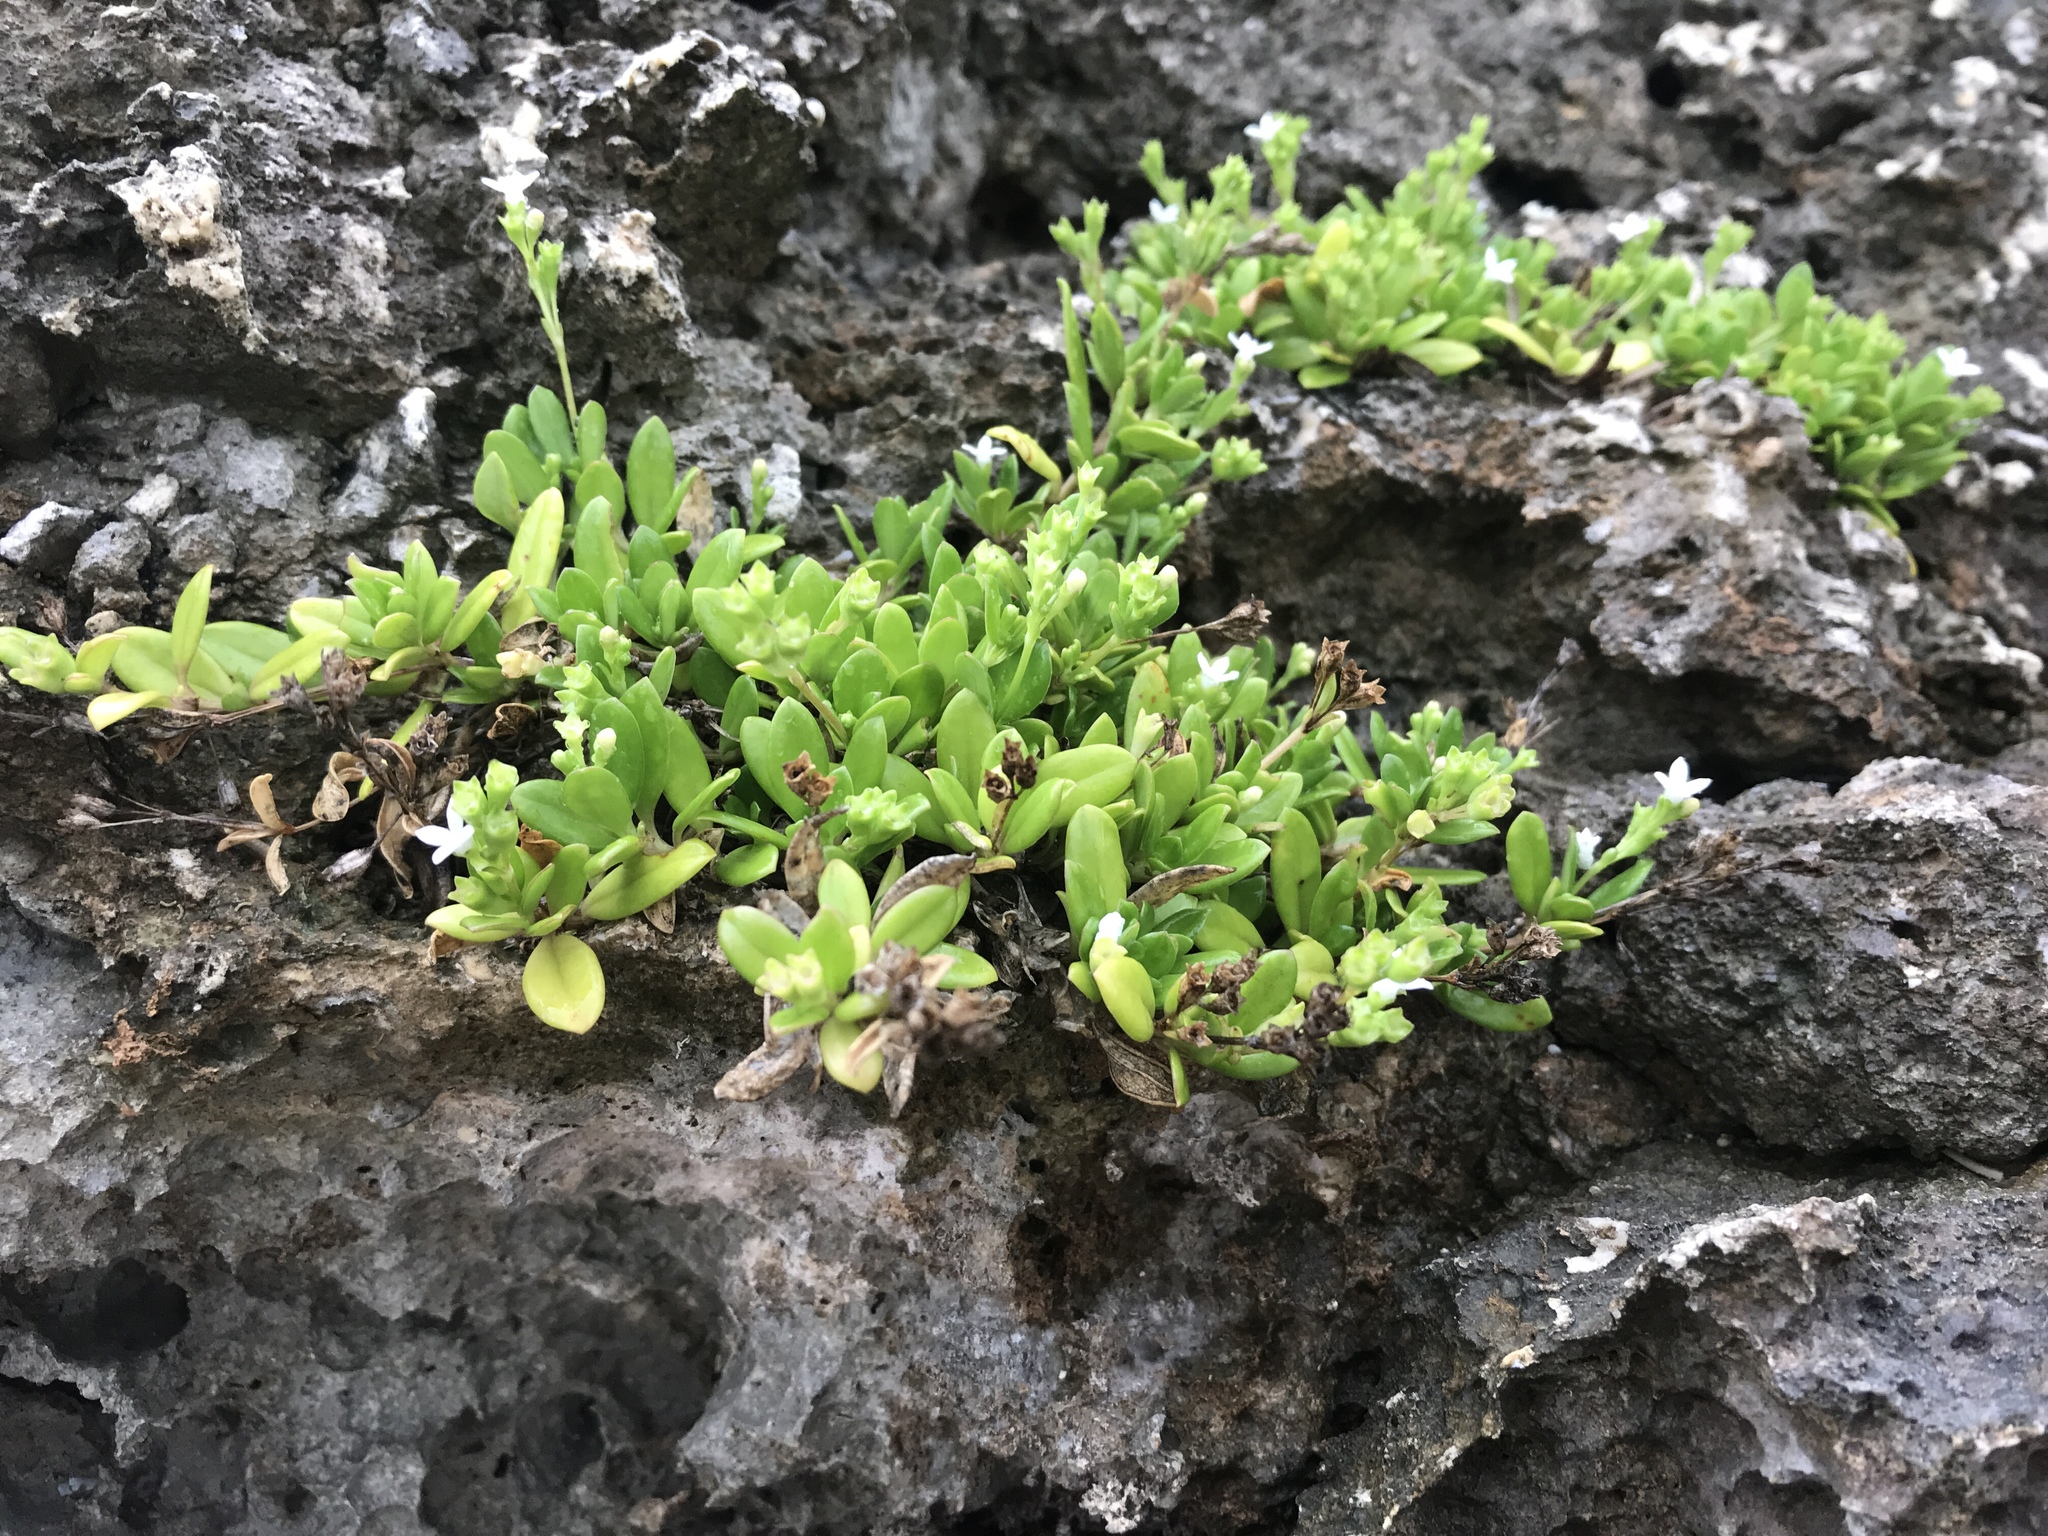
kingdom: Plantae
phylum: Tracheophyta
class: Magnoliopsida
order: Gentianales
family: Rubiaceae
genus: Leptopetalum
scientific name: Leptopetalum strigulosum
